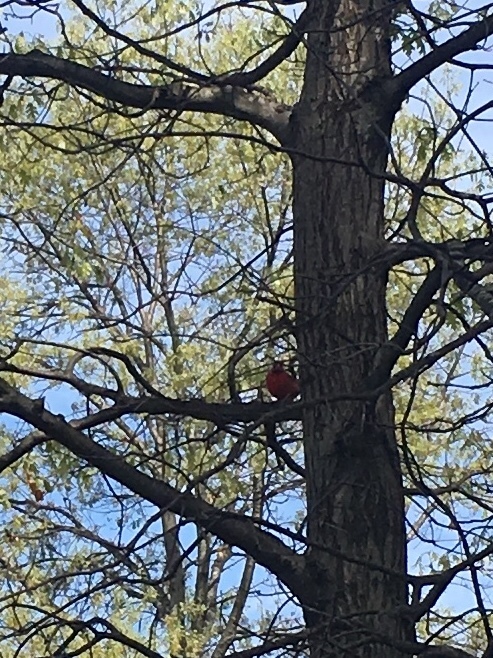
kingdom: Animalia
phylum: Chordata
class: Aves
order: Passeriformes
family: Cardinalidae
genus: Cardinalis
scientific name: Cardinalis cardinalis
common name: Northern cardinal
